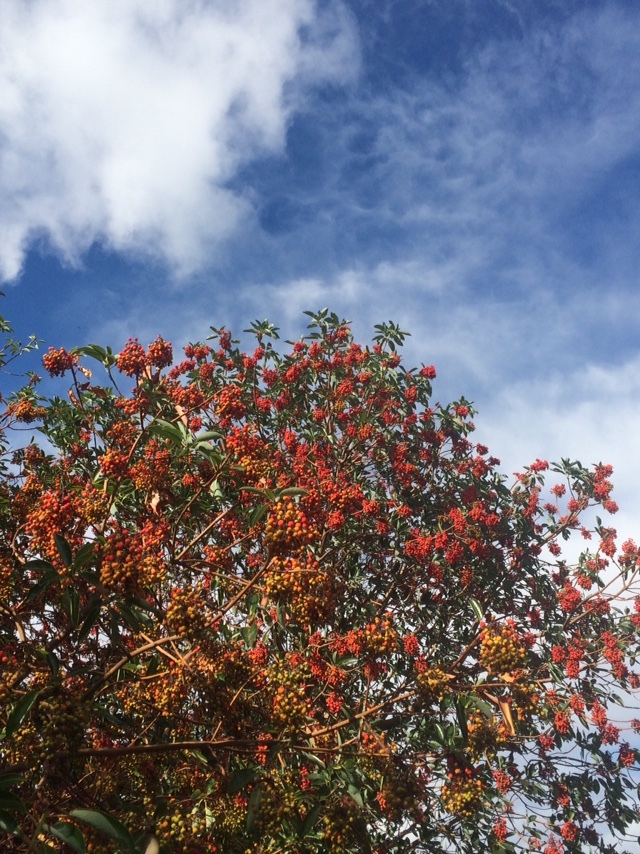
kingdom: Plantae
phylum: Tracheophyta
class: Magnoliopsida
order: Ericales
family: Ericaceae
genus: Arbutus
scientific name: Arbutus menziesii
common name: Pacific madrone
